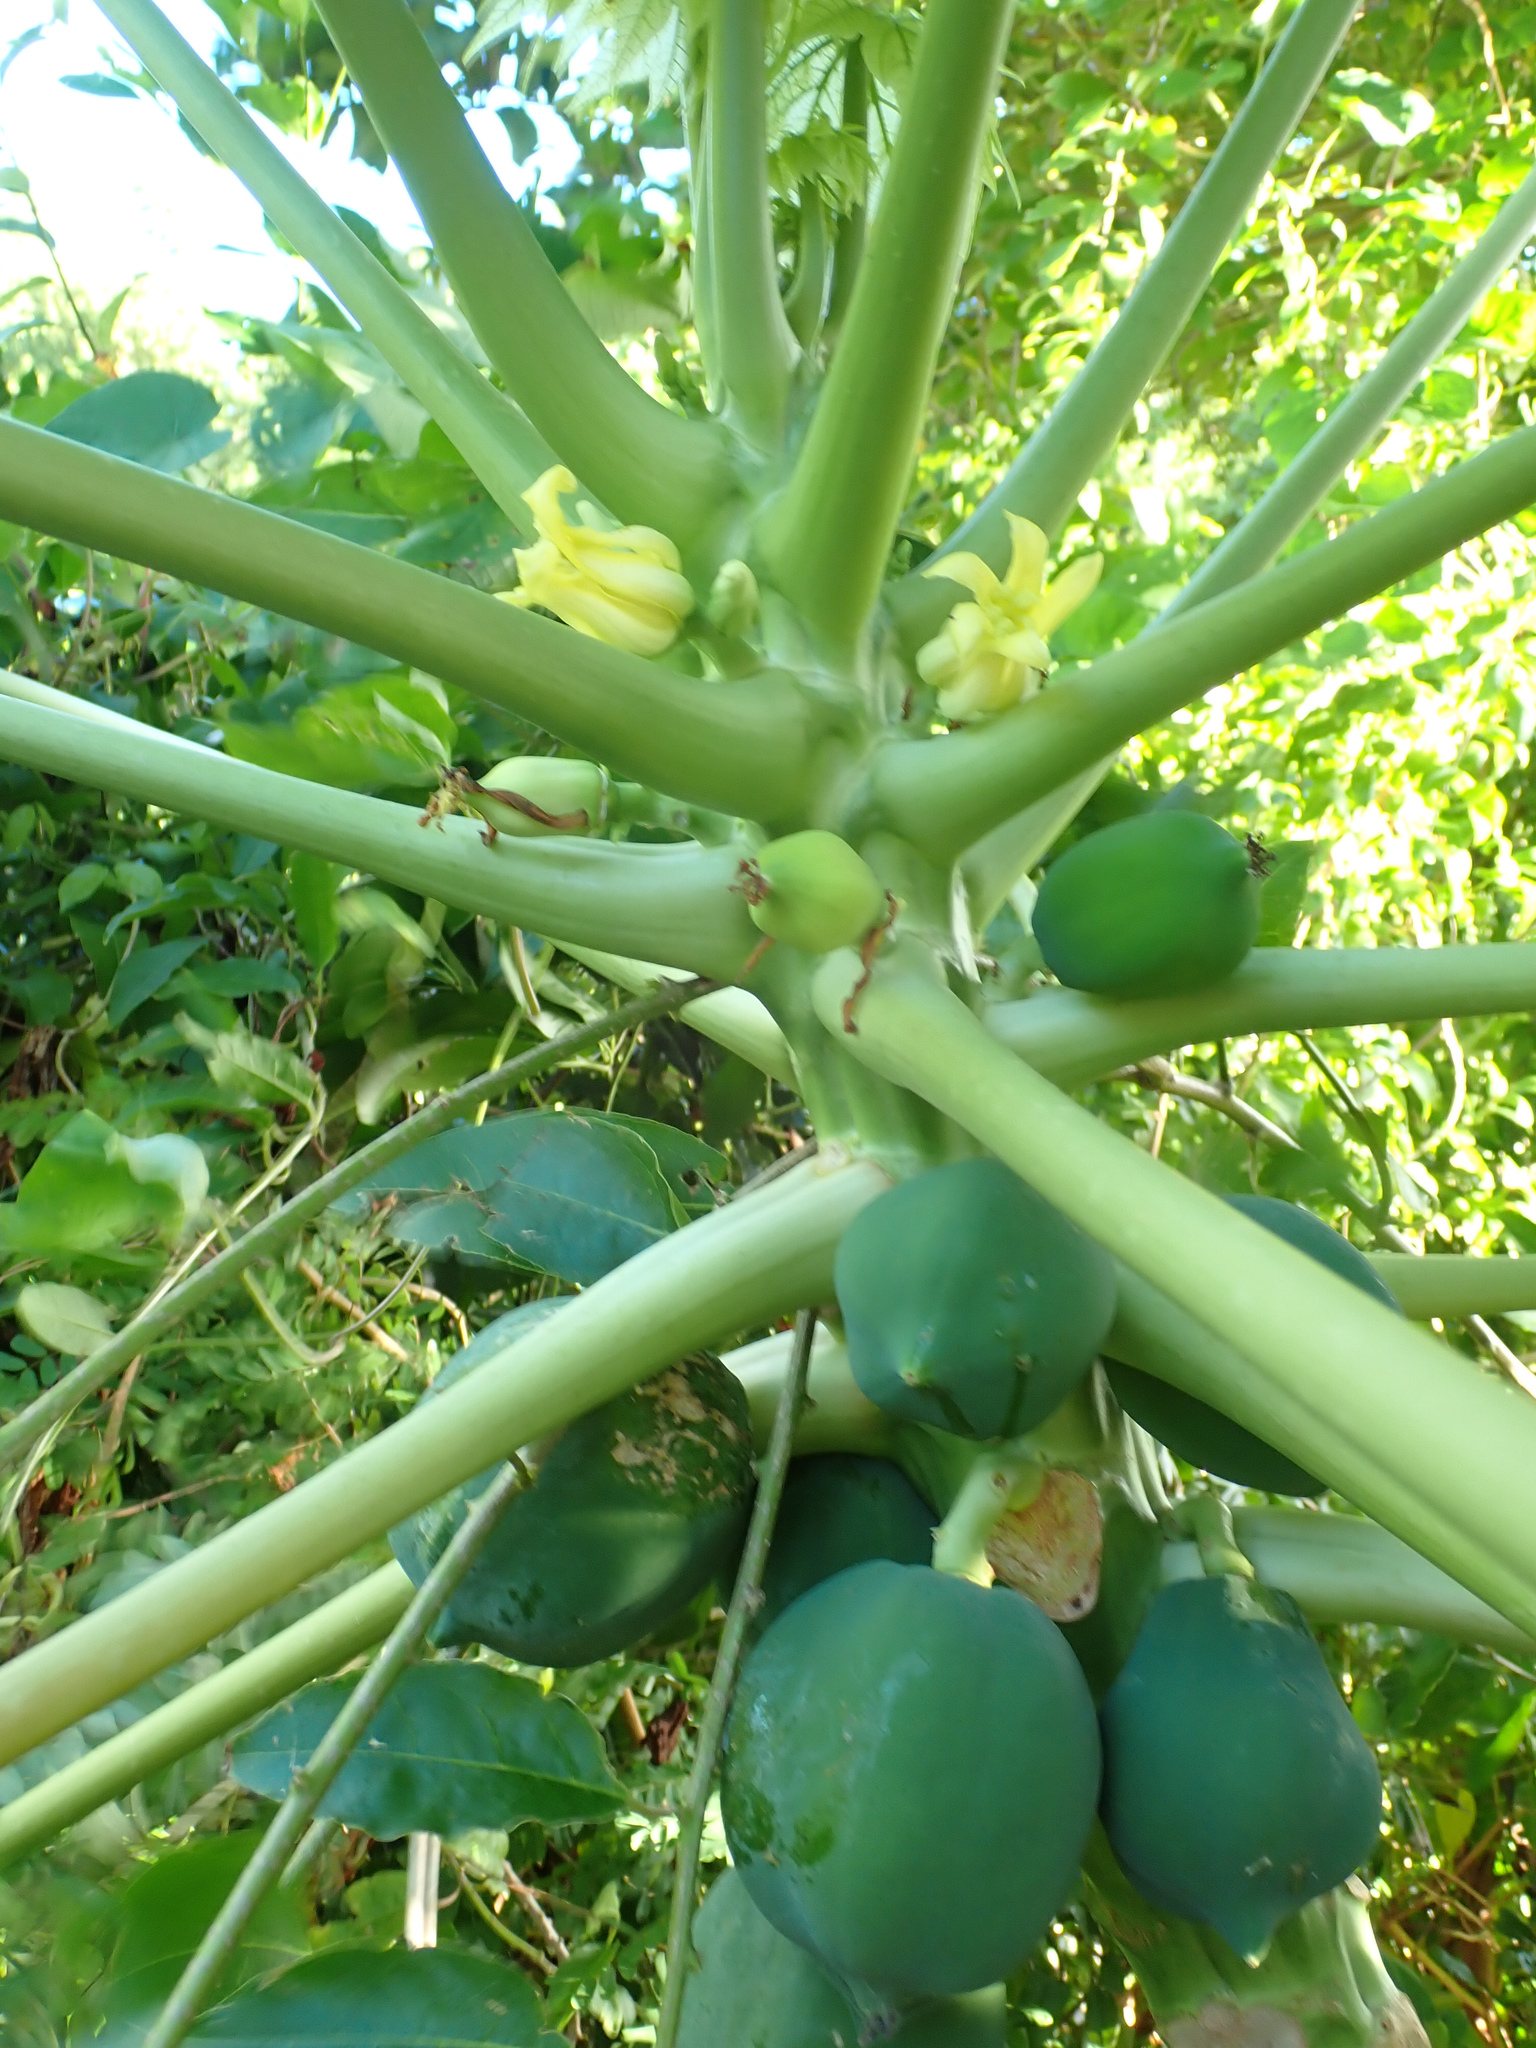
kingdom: Plantae
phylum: Tracheophyta
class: Magnoliopsida
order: Brassicales
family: Caricaceae
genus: Carica
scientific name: Carica papaya
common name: Papaya
